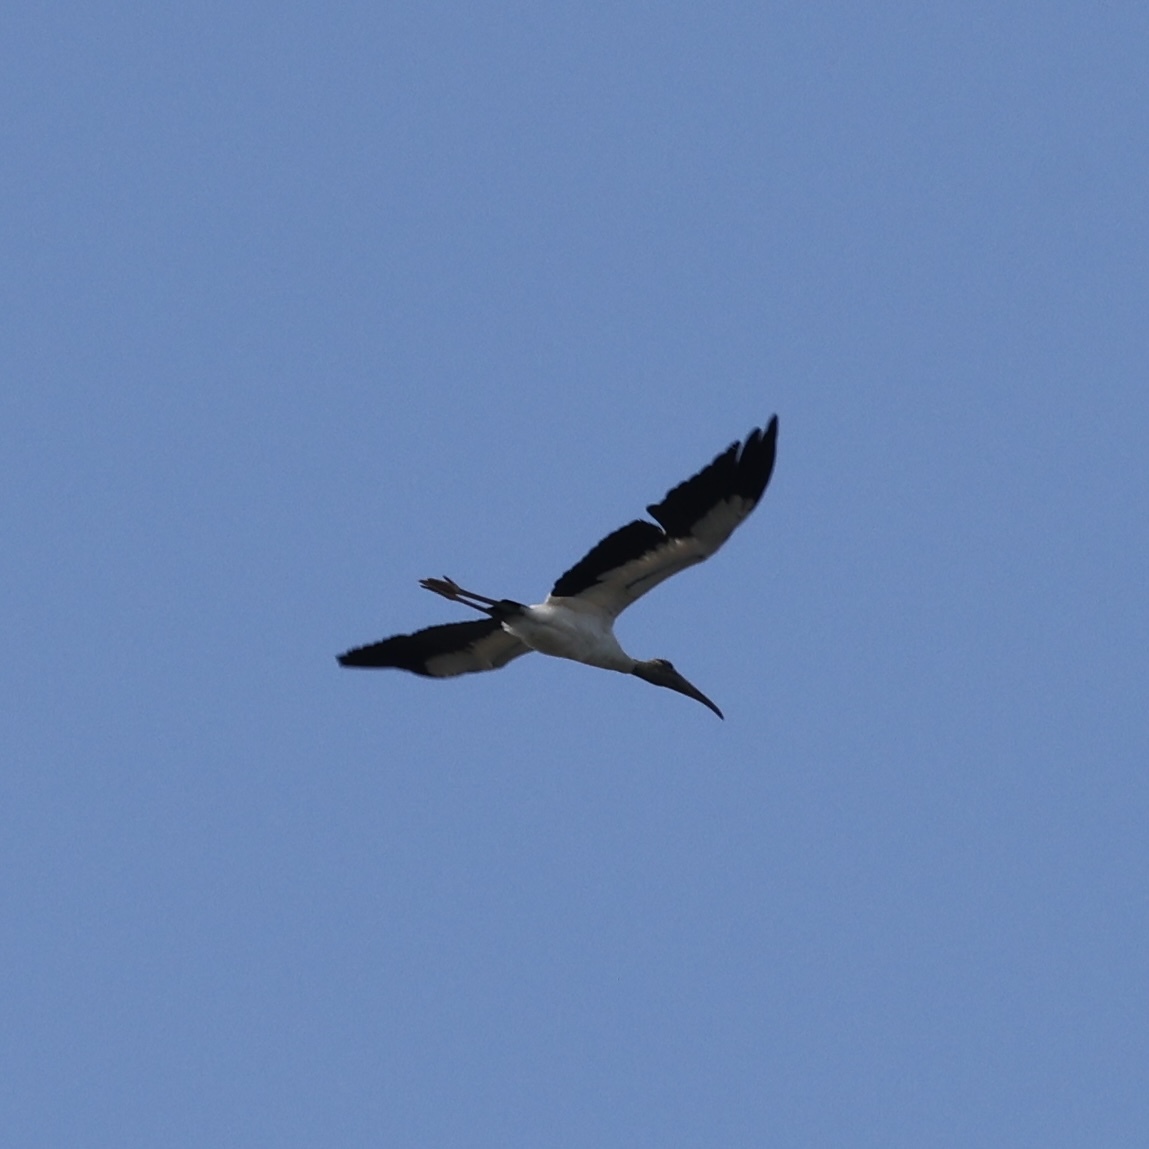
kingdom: Animalia
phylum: Chordata
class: Aves
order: Ciconiiformes
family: Ciconiidae
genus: Mycteria
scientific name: Mycteria americana
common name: Wood stork
